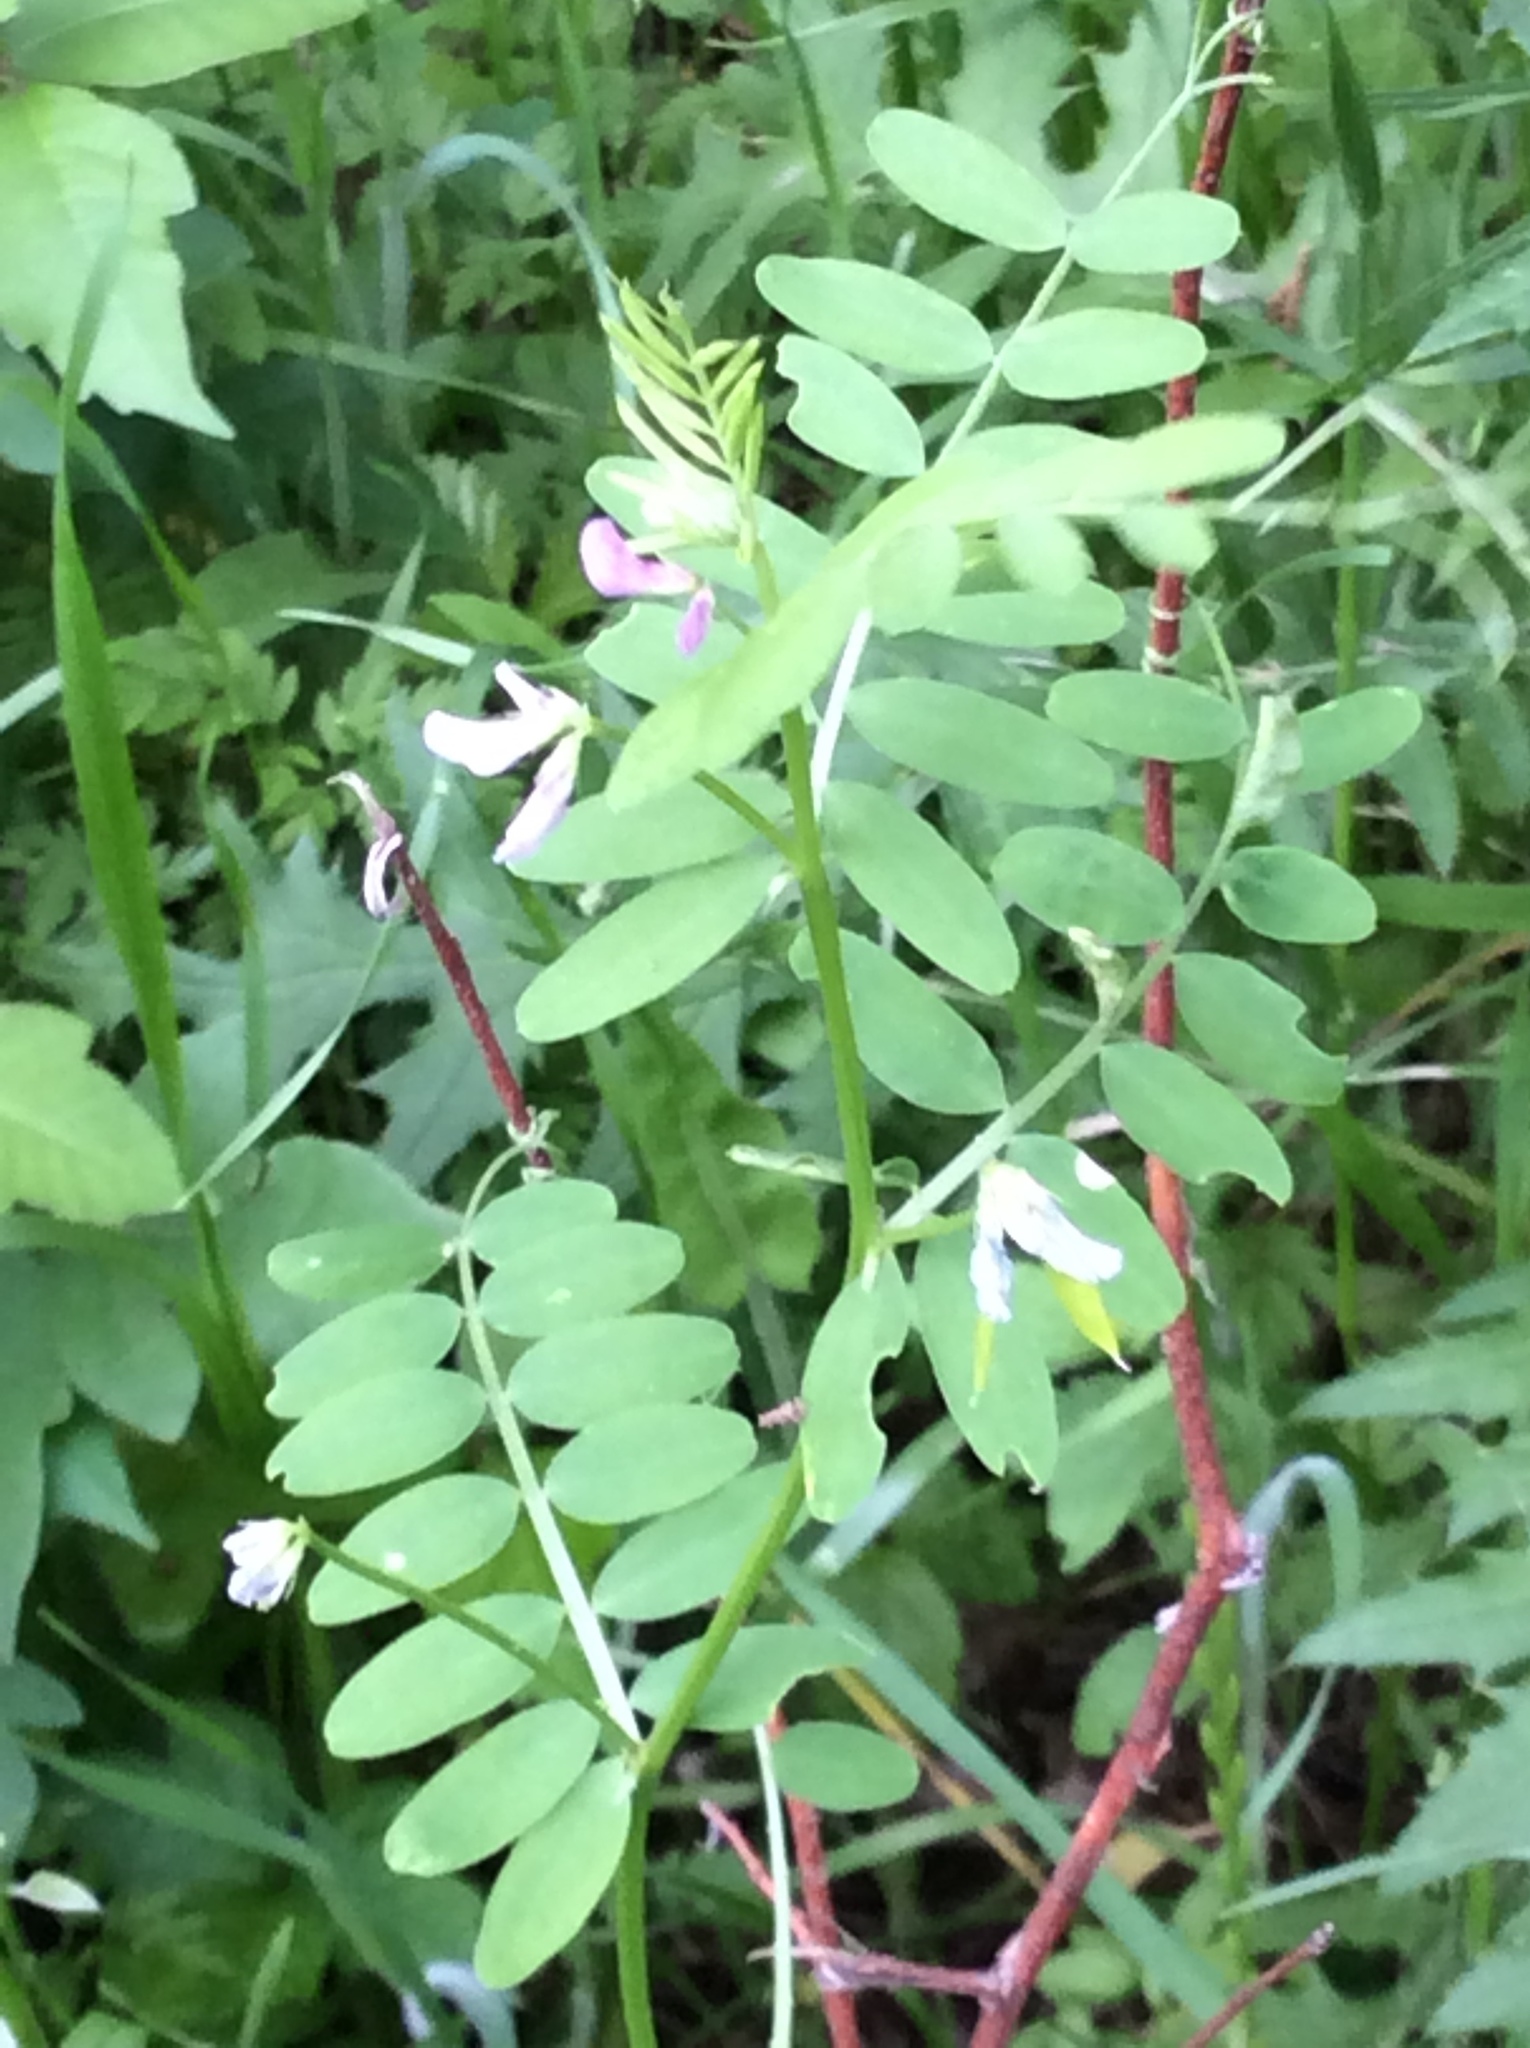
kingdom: Plantae
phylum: Tracheophyta
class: Magnoliopsida
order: Fabales
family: Fabaceae
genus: Vicia
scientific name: Vicia ludoviciana
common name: Louisiana vetch
